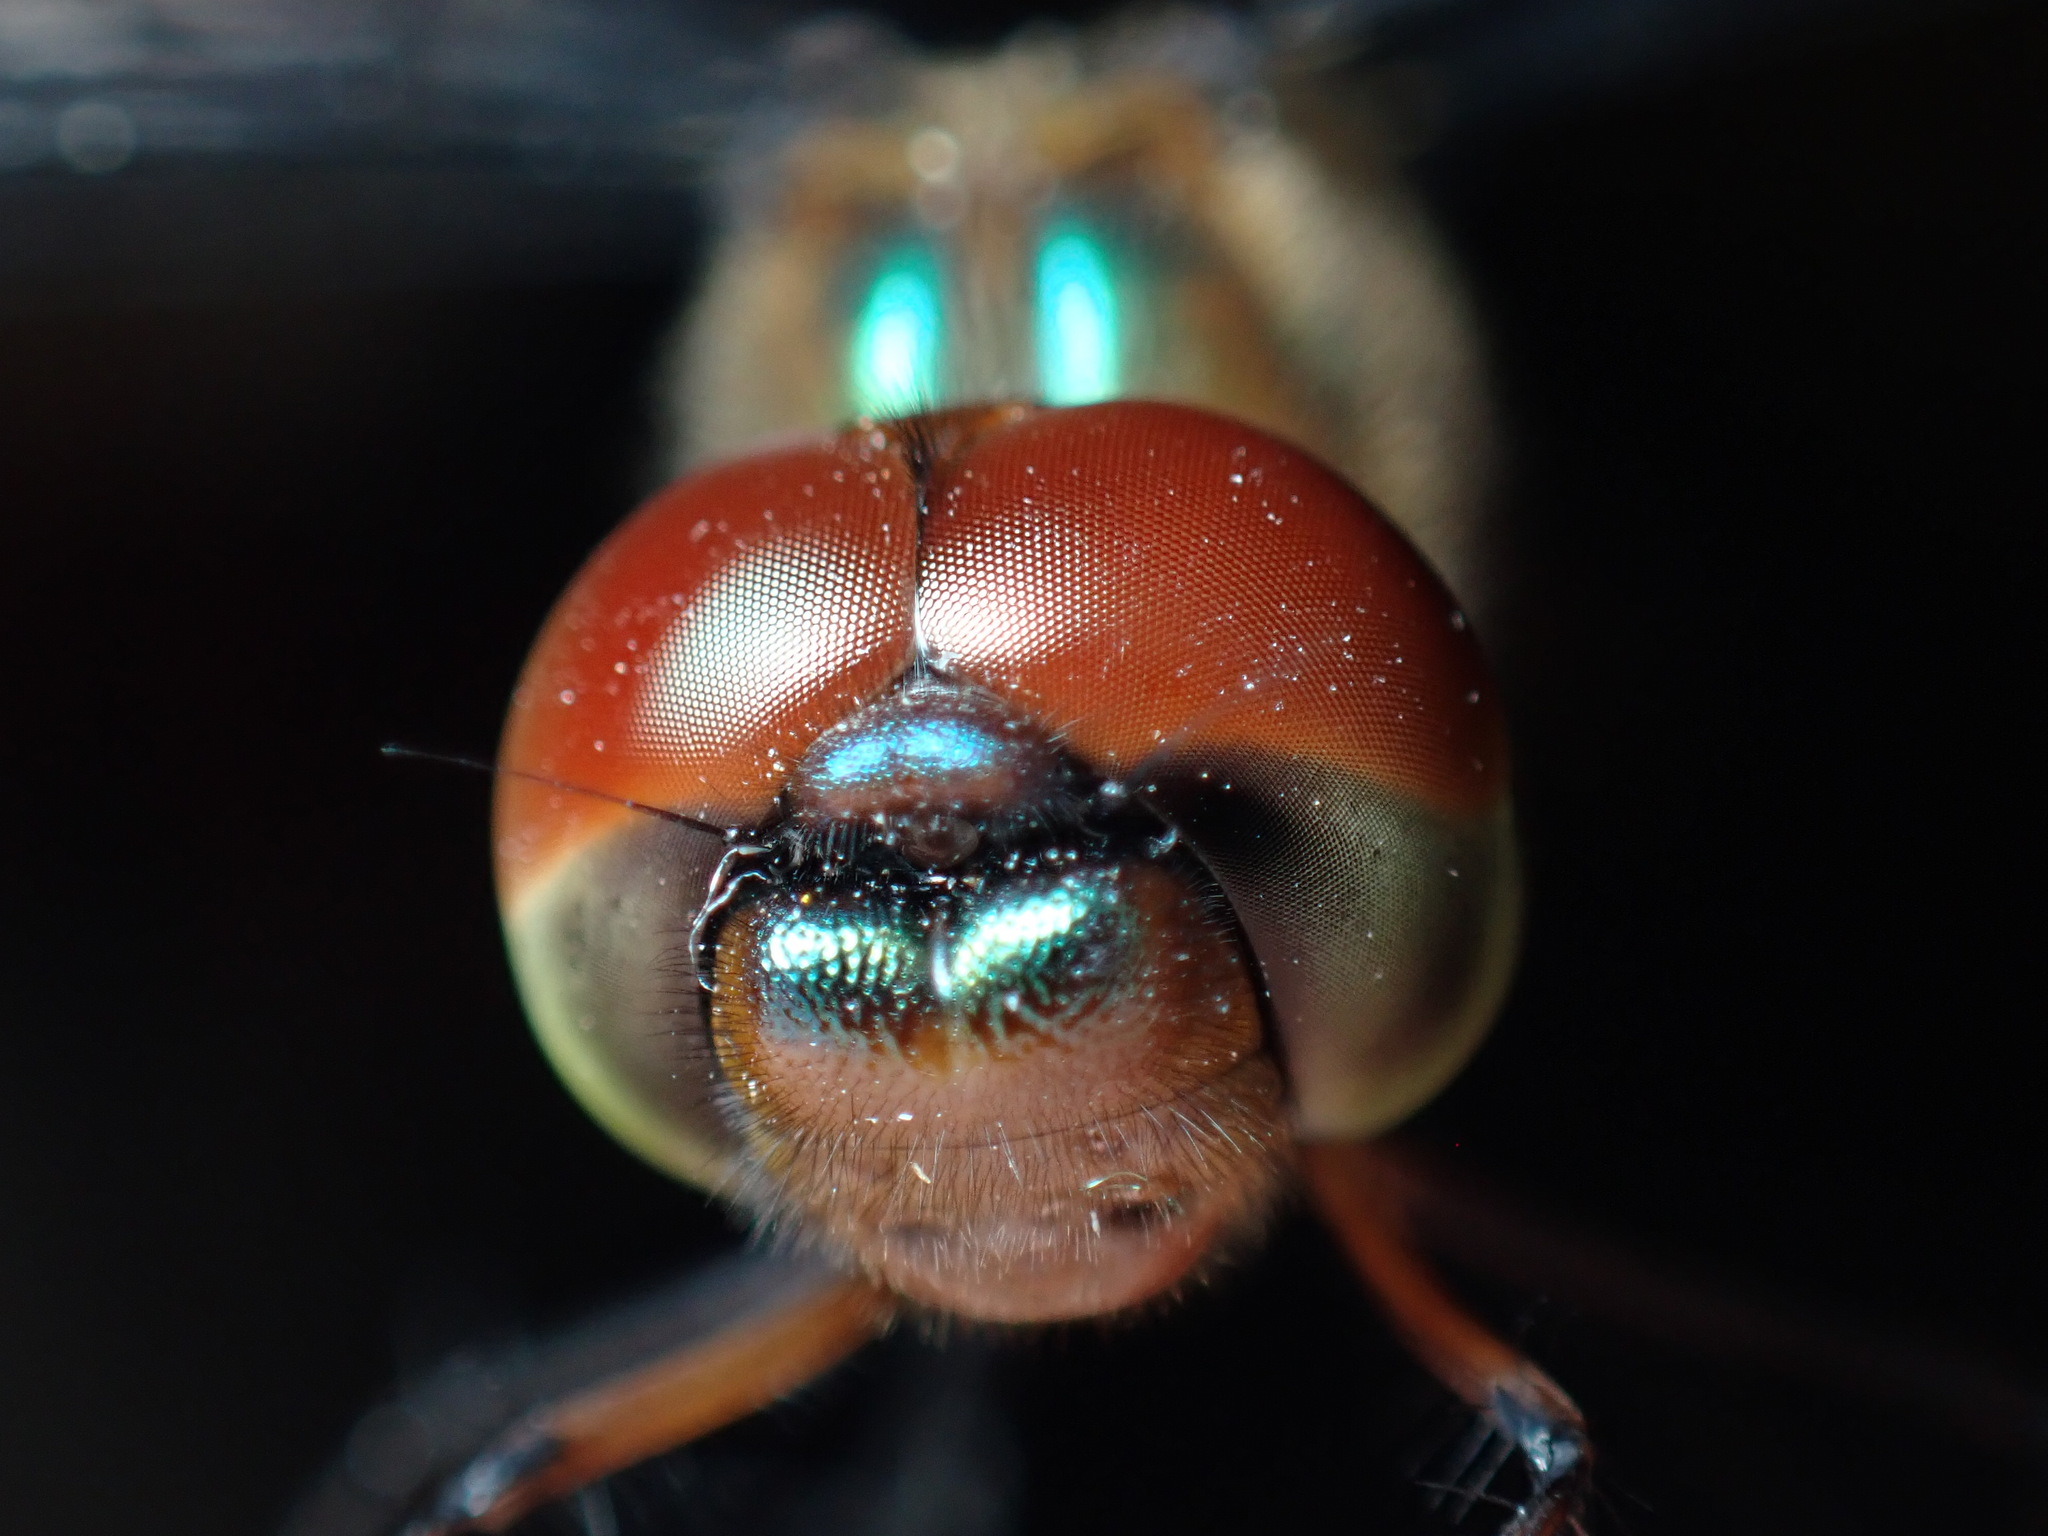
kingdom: Animalia
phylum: Arthropoda
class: Insecta
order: Odonata
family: Corduliidae
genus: Hemicordulia
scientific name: Hemicordulia continentalis
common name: Fat-bellied emerald
